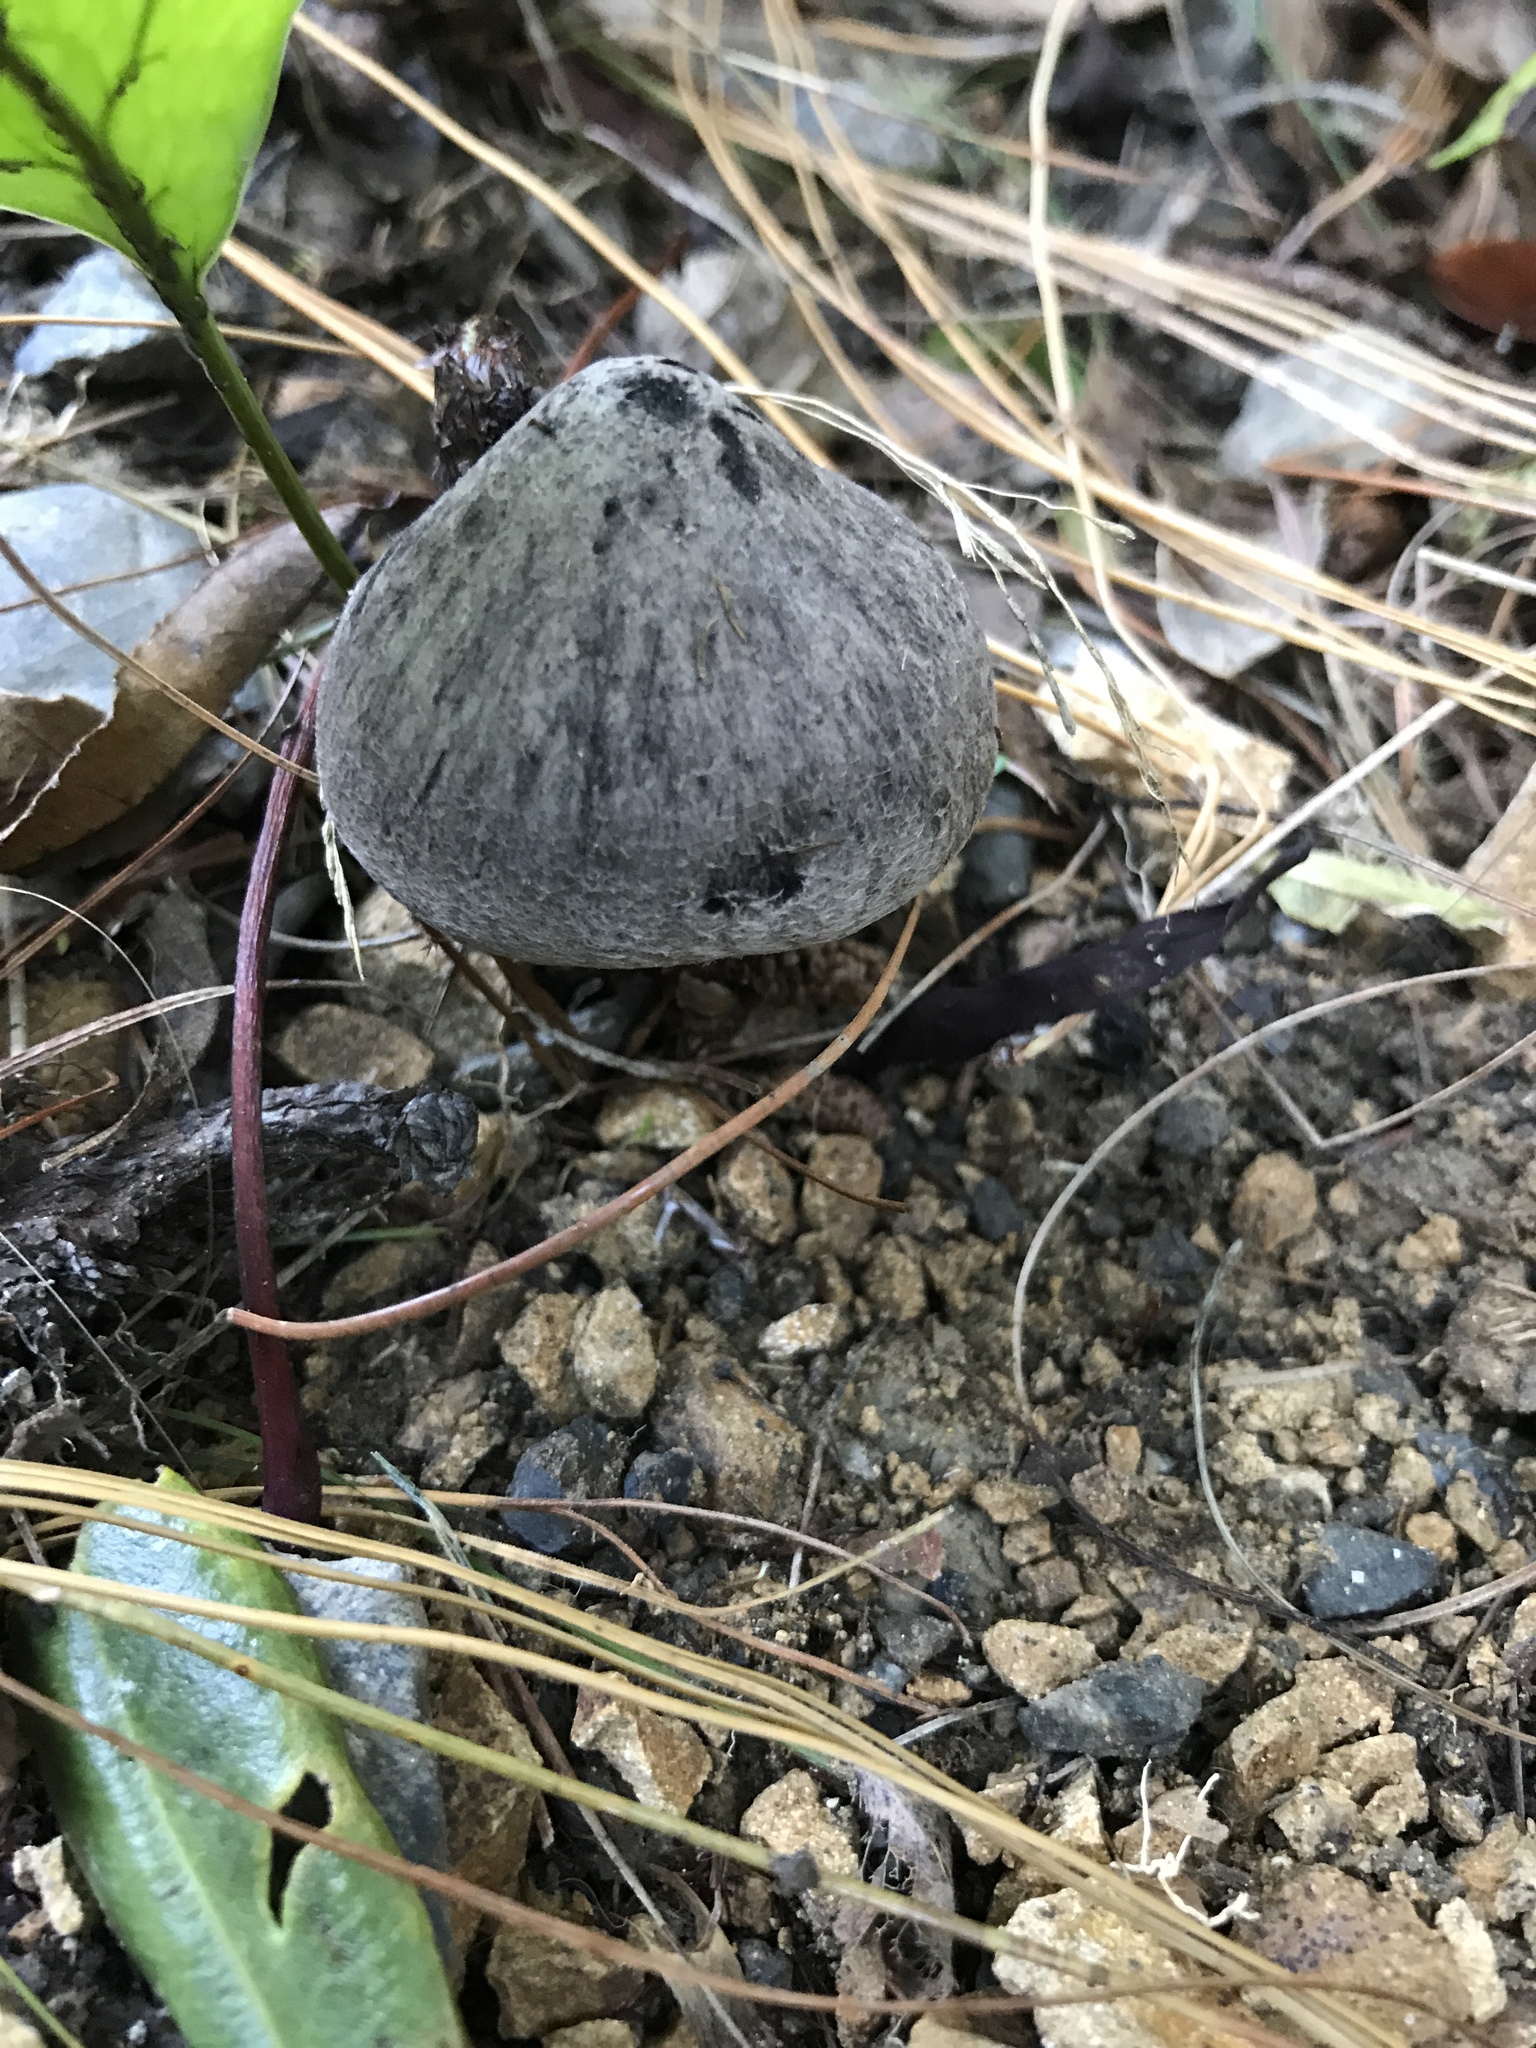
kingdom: Fungi
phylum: Basidiomycota
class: Agaricomycetes
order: Agaricales
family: Tricholomataceae
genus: Tricholoma
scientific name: Tricholoma terreum
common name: Grey knight
